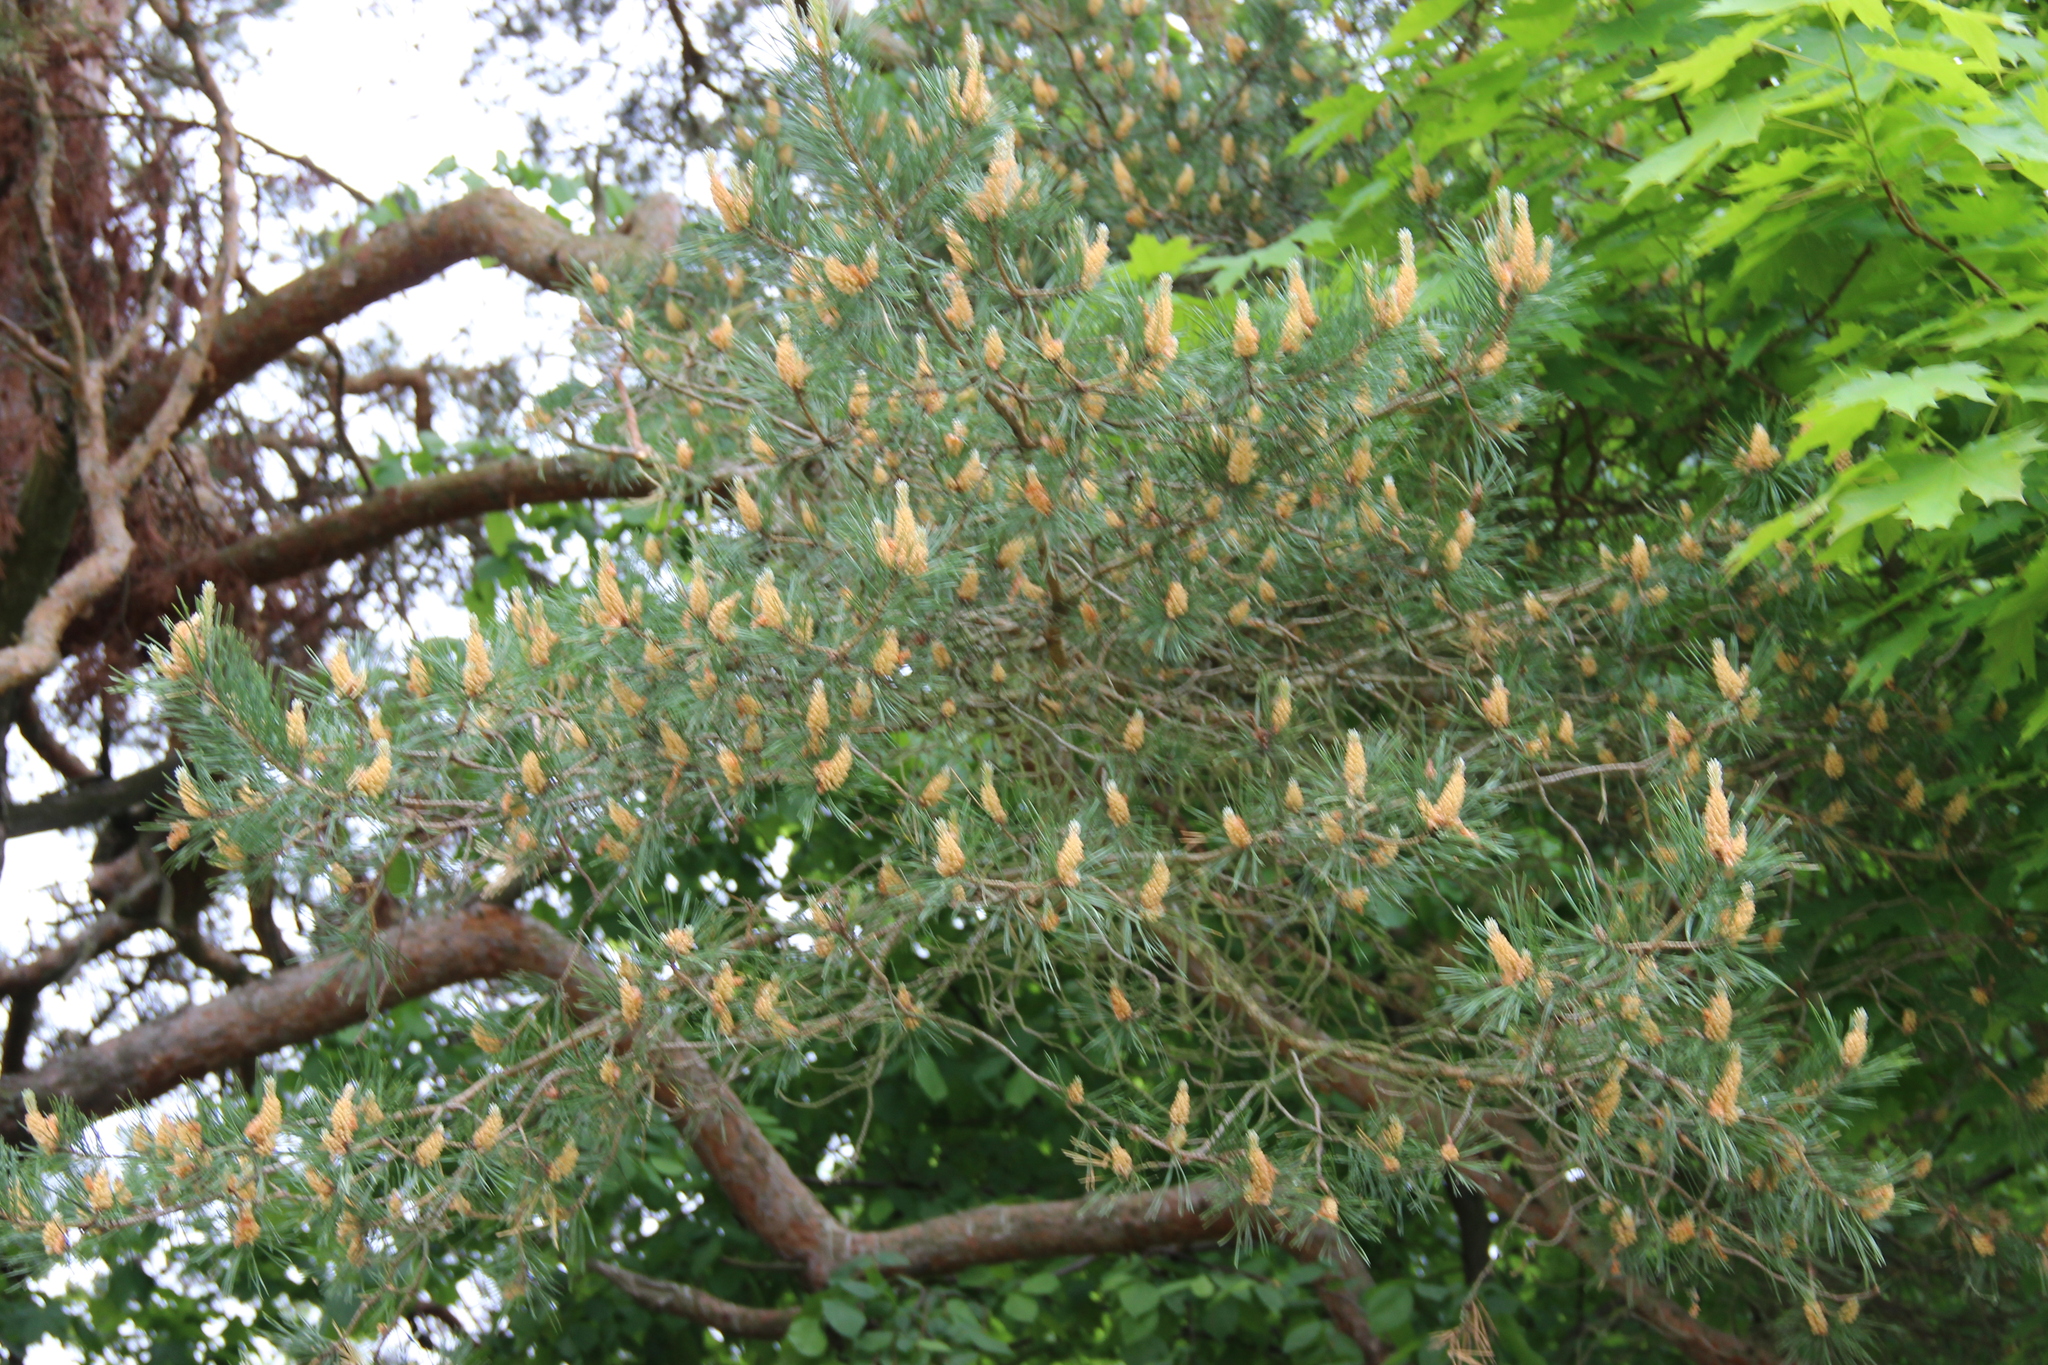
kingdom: Plantae
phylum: Tracheophyta
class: Pinopsida
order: Pinales
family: Pinaceae
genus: Pinus
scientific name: Pinus sylvestris
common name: Scots pine
